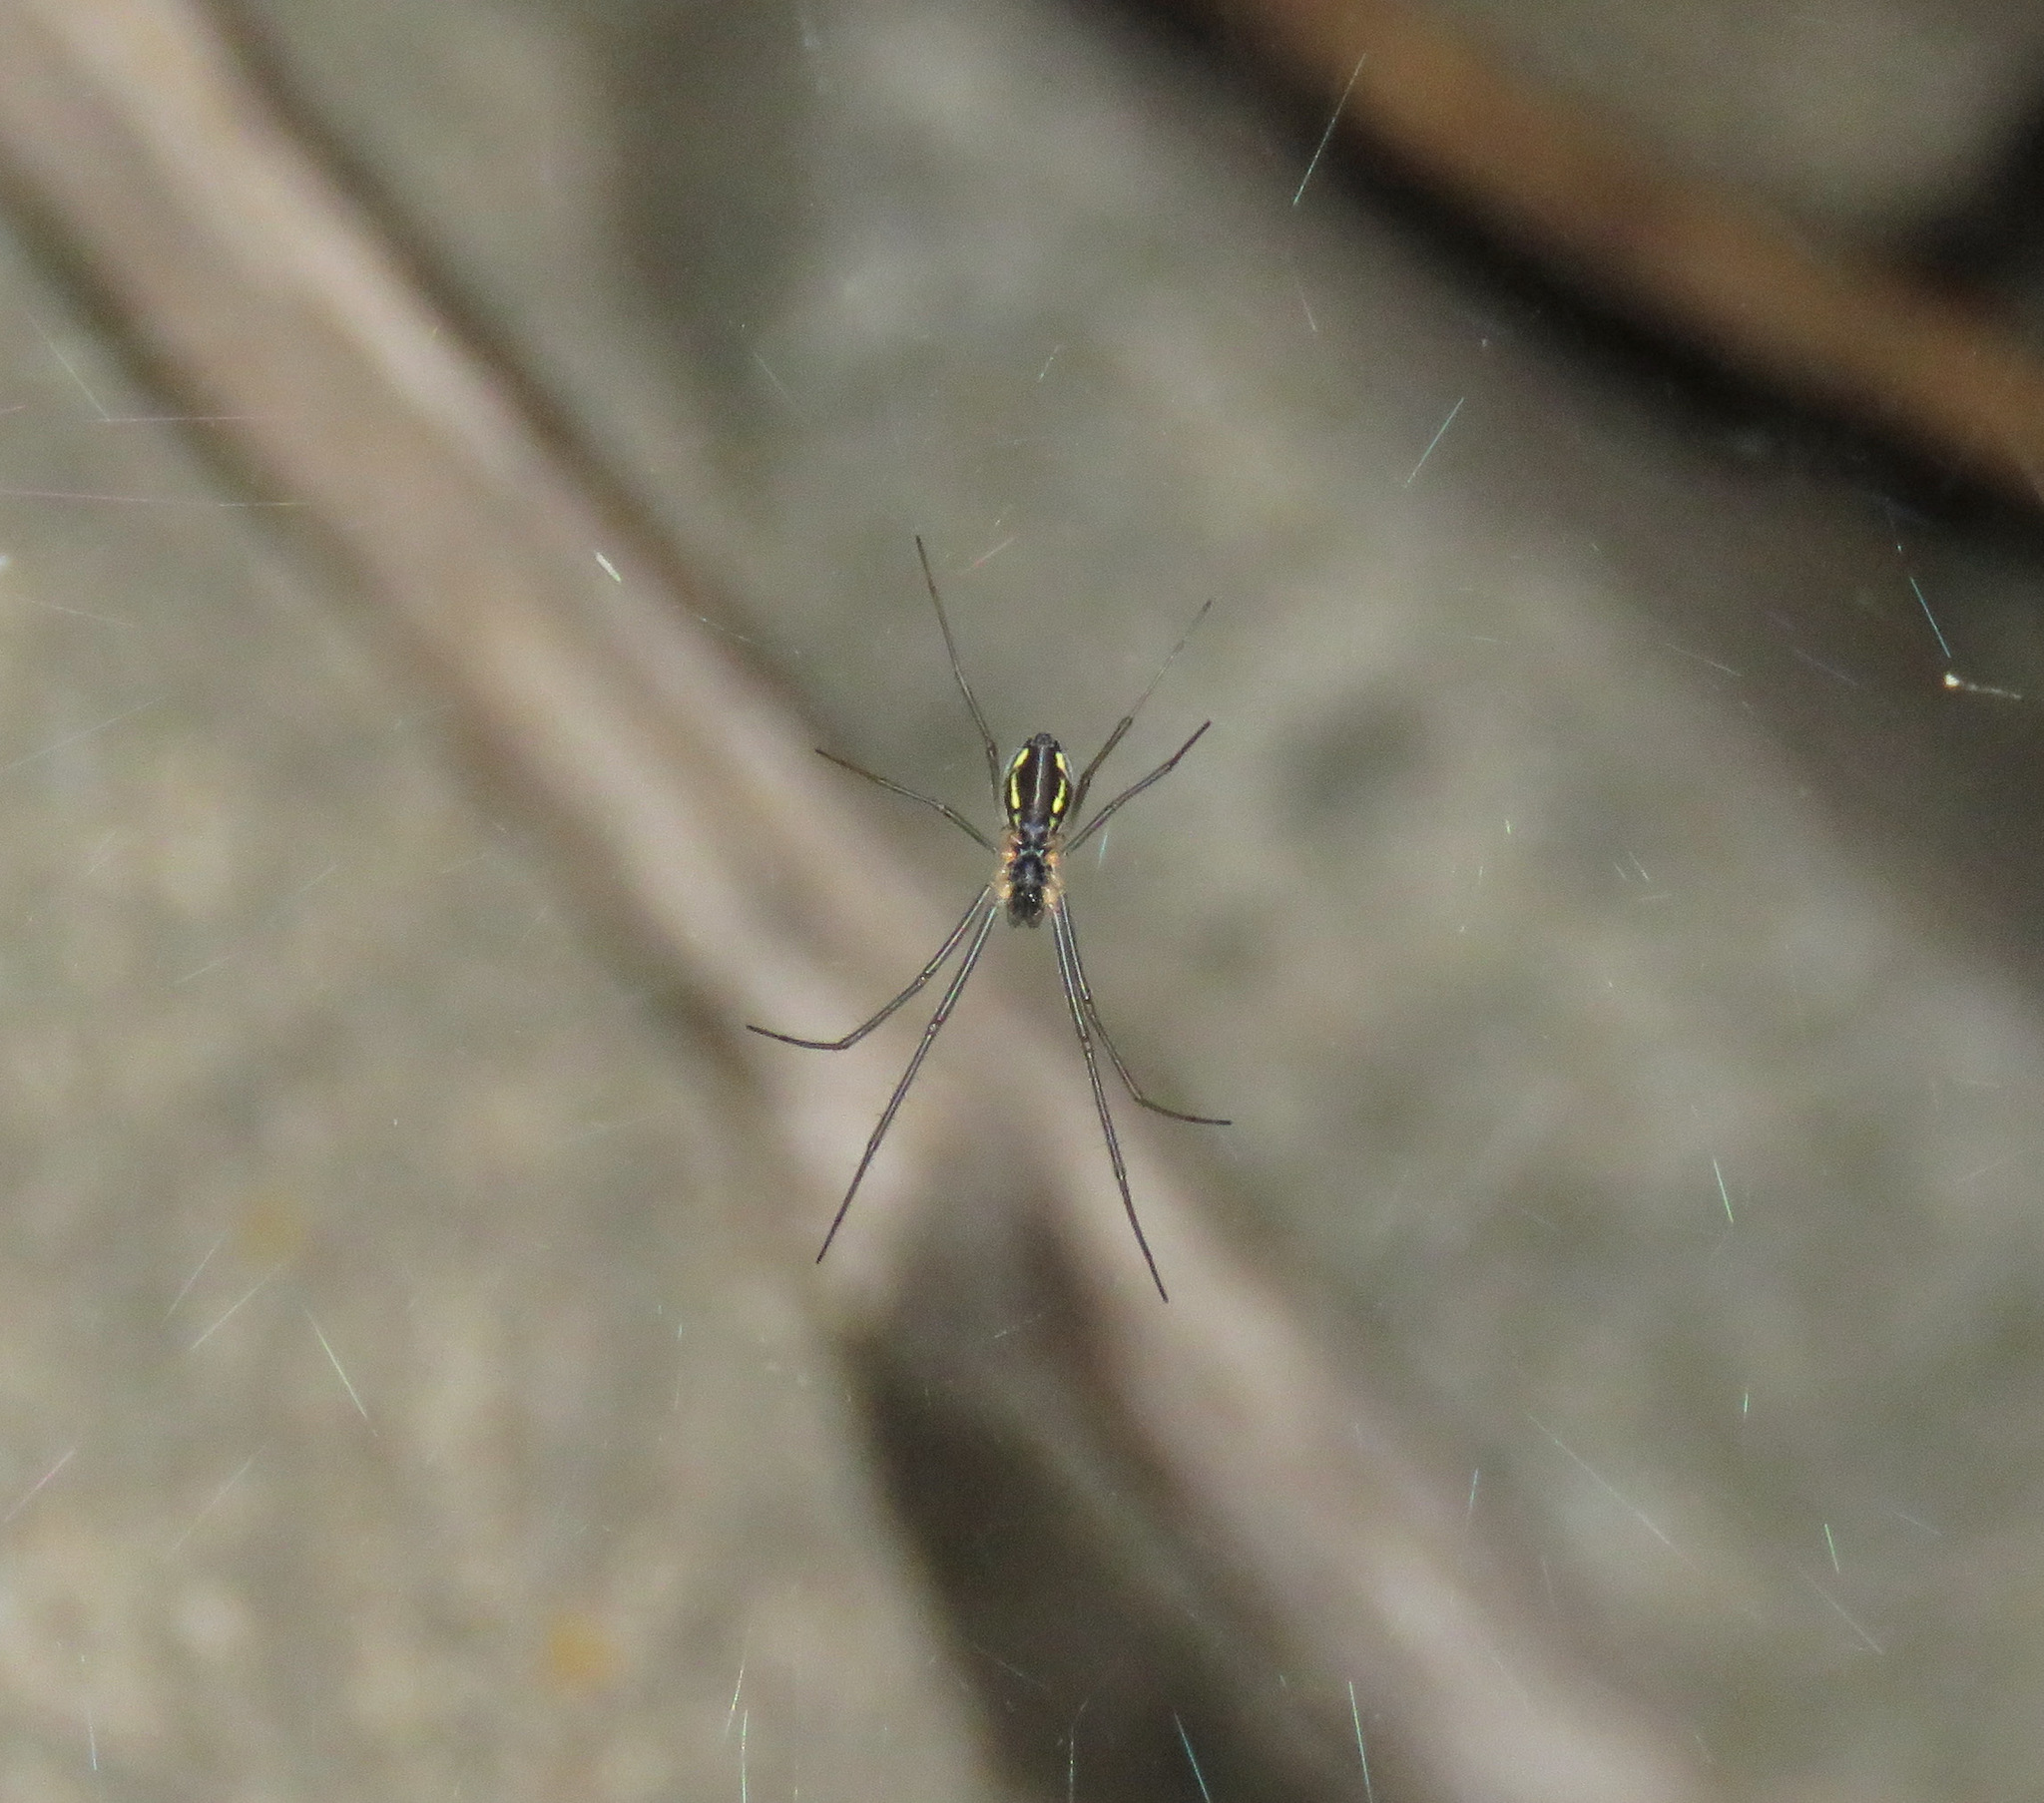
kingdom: Animalia
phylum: Arthropoda
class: Arachnida
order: Araneae
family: Linyphiidae
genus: Neriene
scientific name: Neriene radiata
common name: Filmy dome spider
